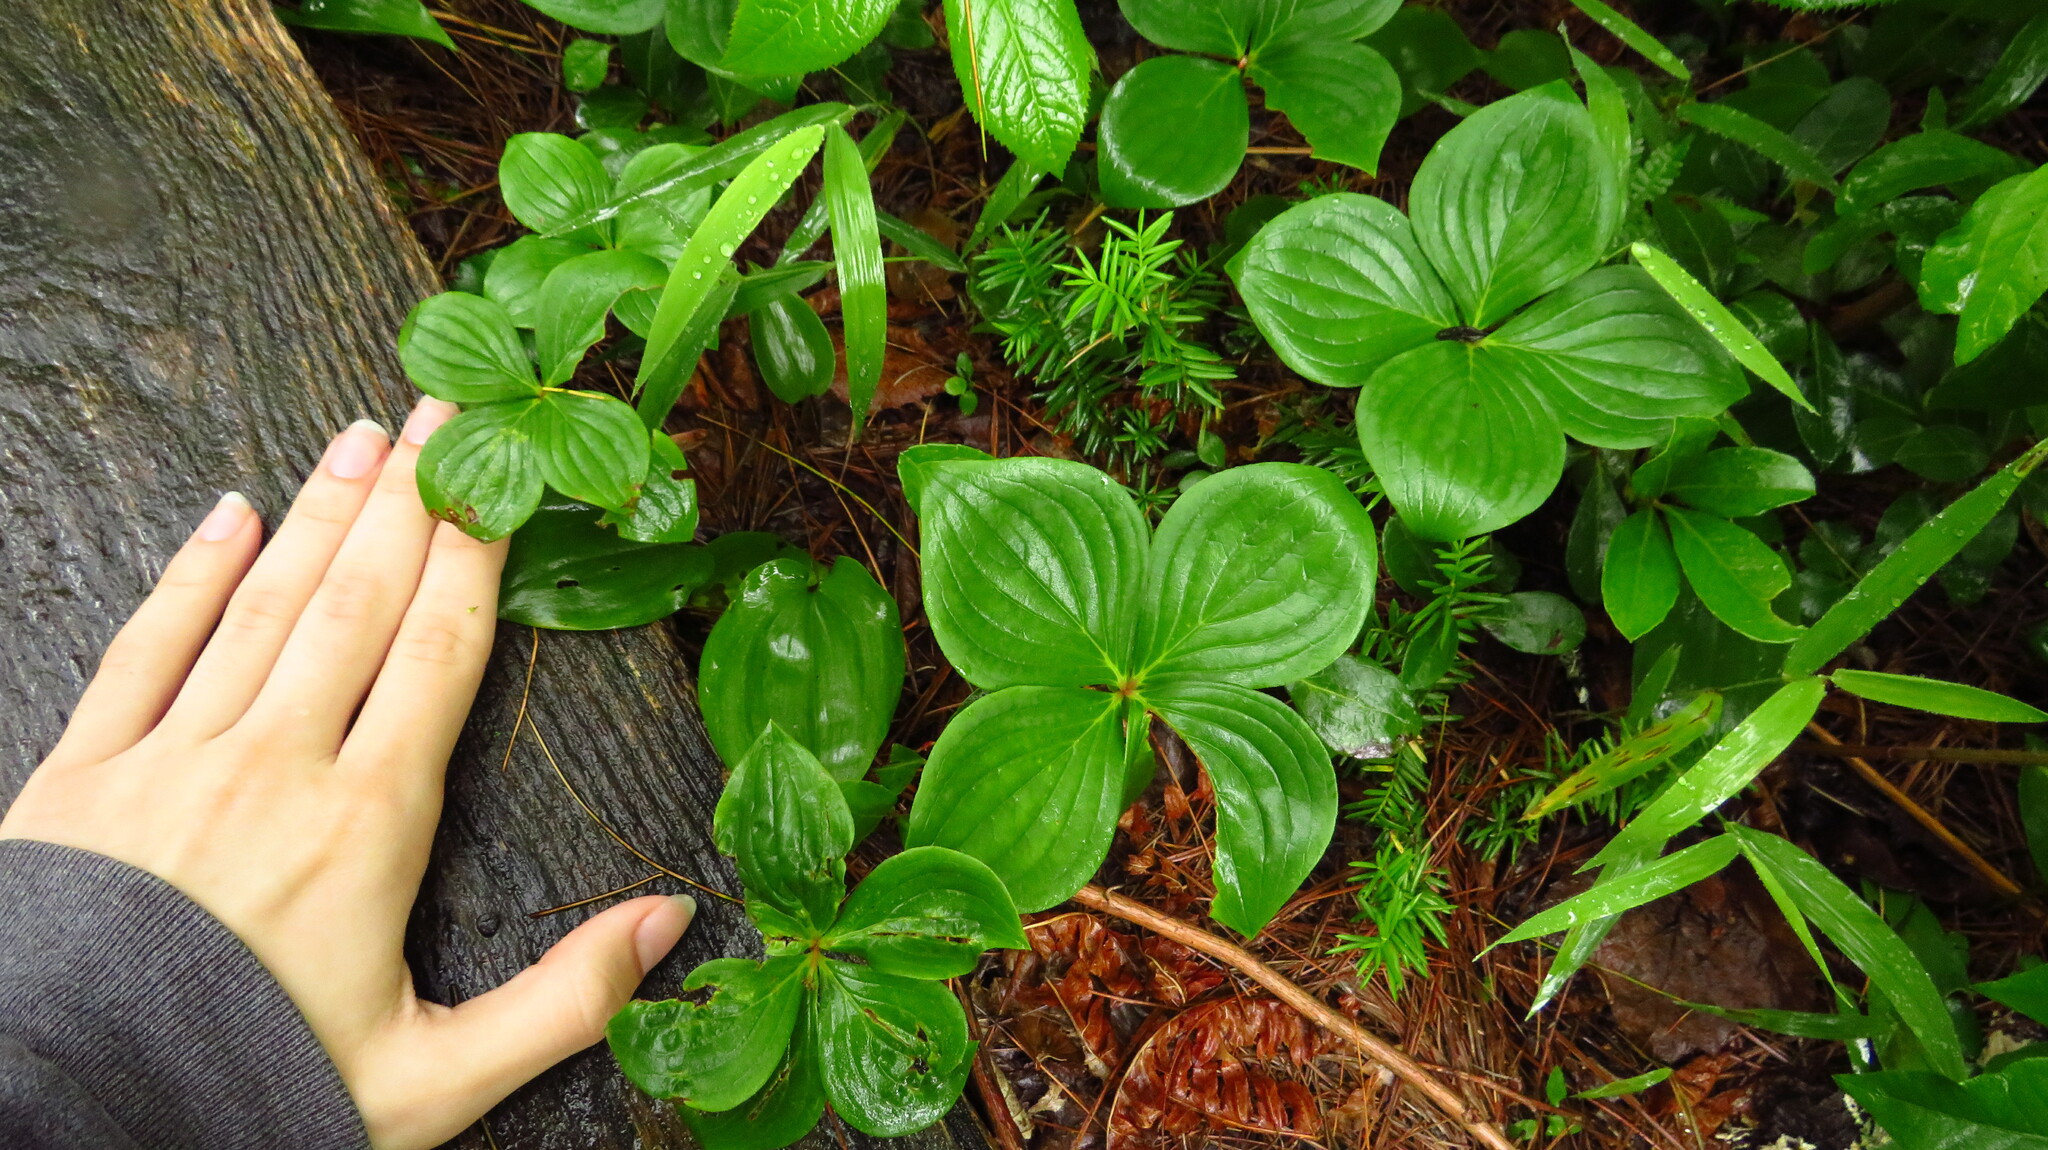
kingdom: Plantae
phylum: Tracheophyta
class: Magnoliopsida
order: Cornales
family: Cornaceae
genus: Cornus
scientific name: Cornus canadensis
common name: Creeping dogwood
